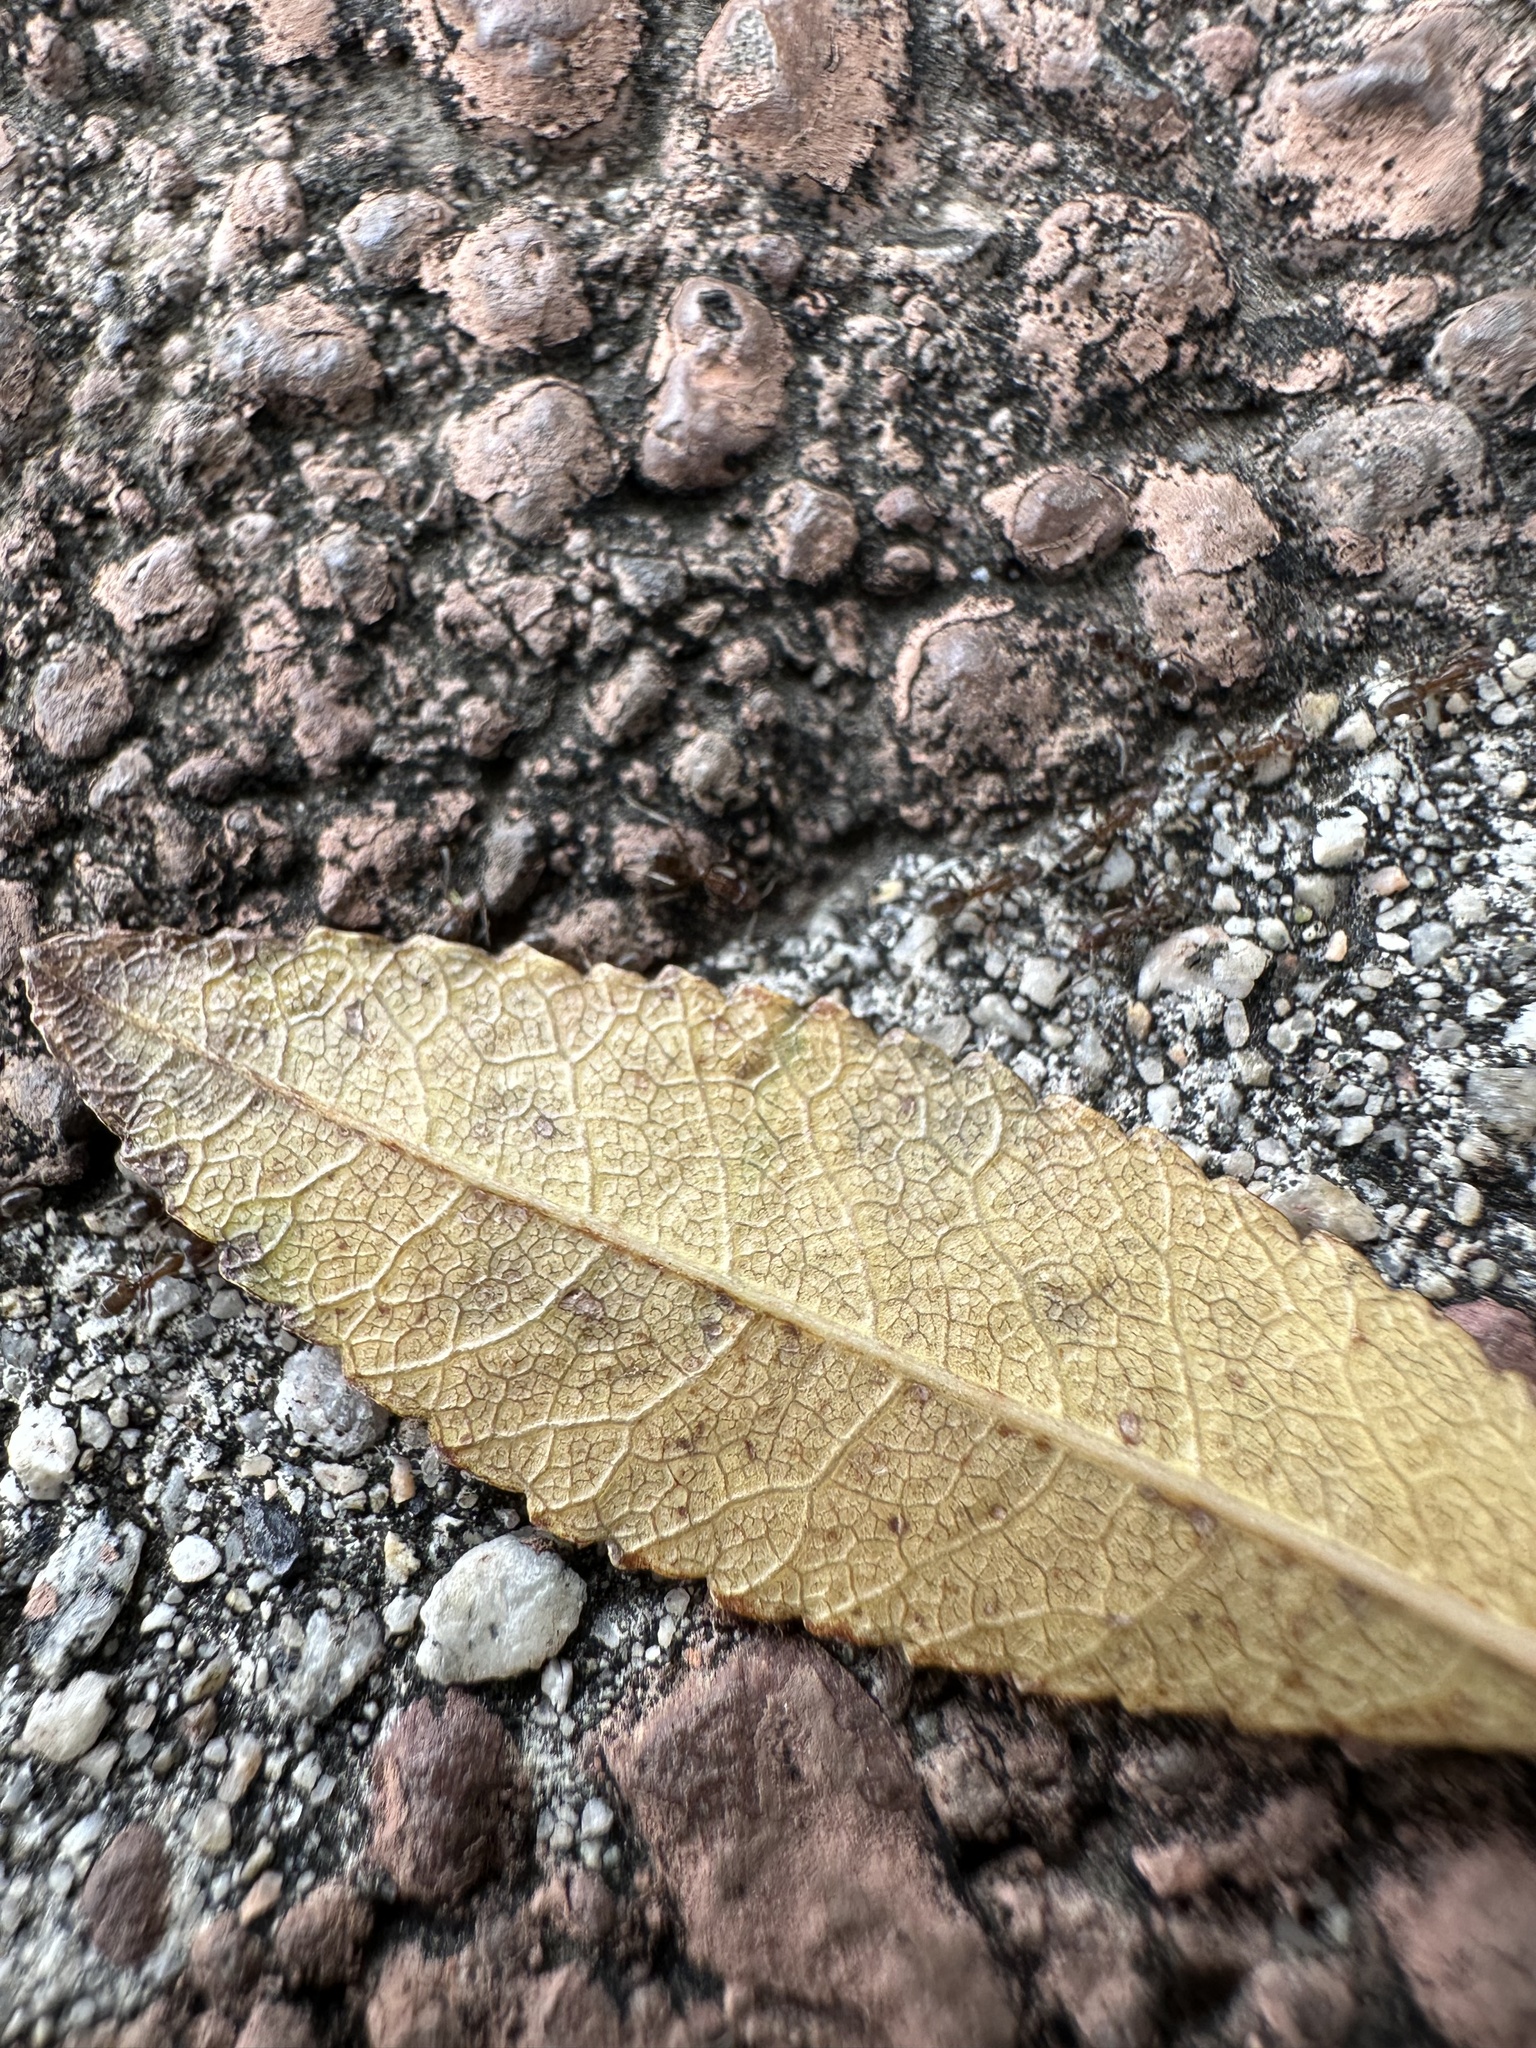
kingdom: Animalia
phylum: Arthropoda
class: Insecta
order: Hymenoptera
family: Formicidae
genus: Linepithema
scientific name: Linepithema humile
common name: Argentine ant
